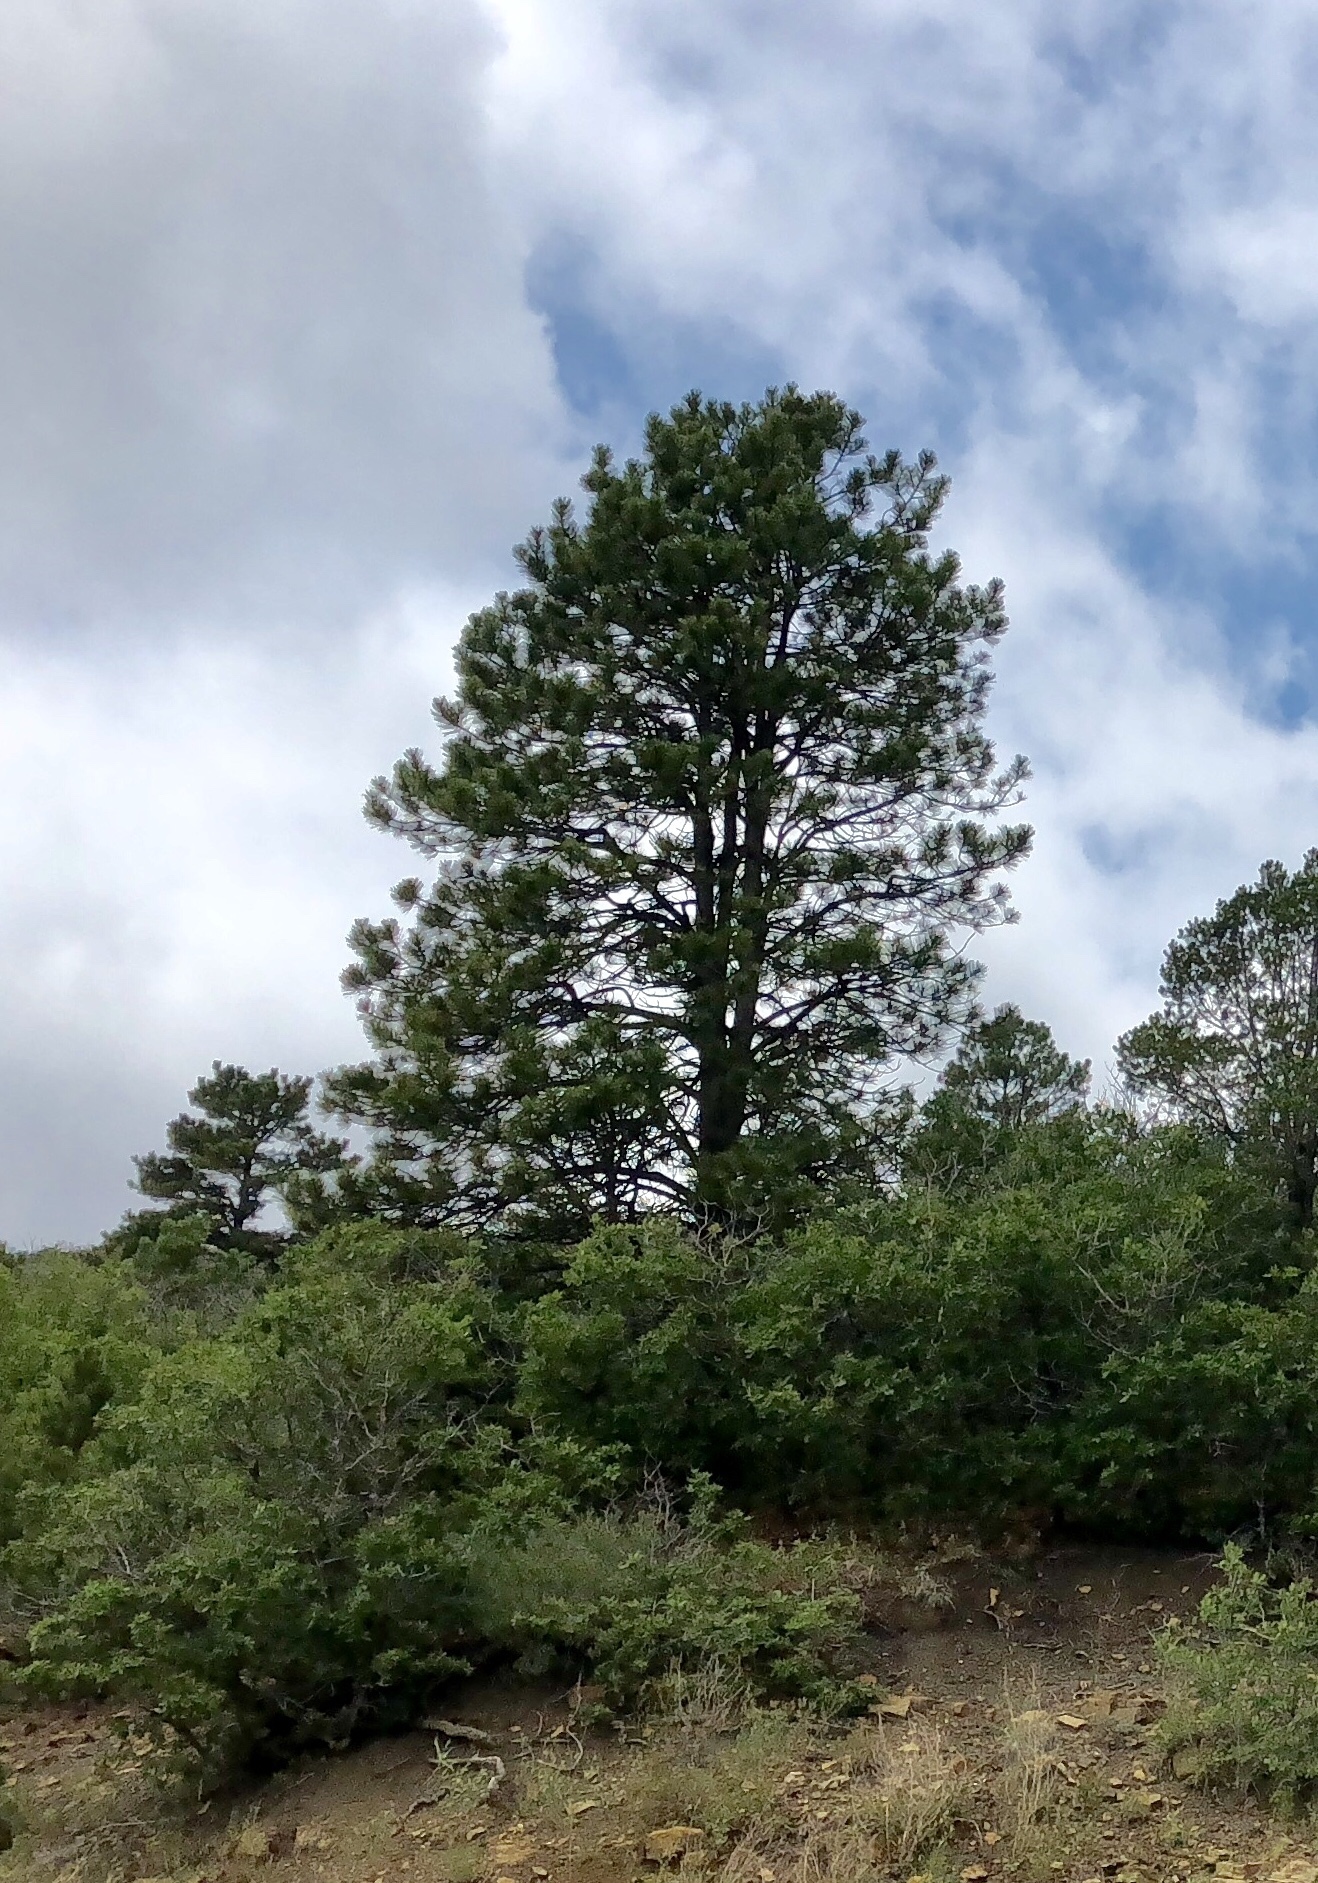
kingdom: Plantae
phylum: Tracheophyta
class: Pinopsida
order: Pinales
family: Pinaceae
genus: Pinus
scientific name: Pinus ponderosa
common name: Western yellow-pine
